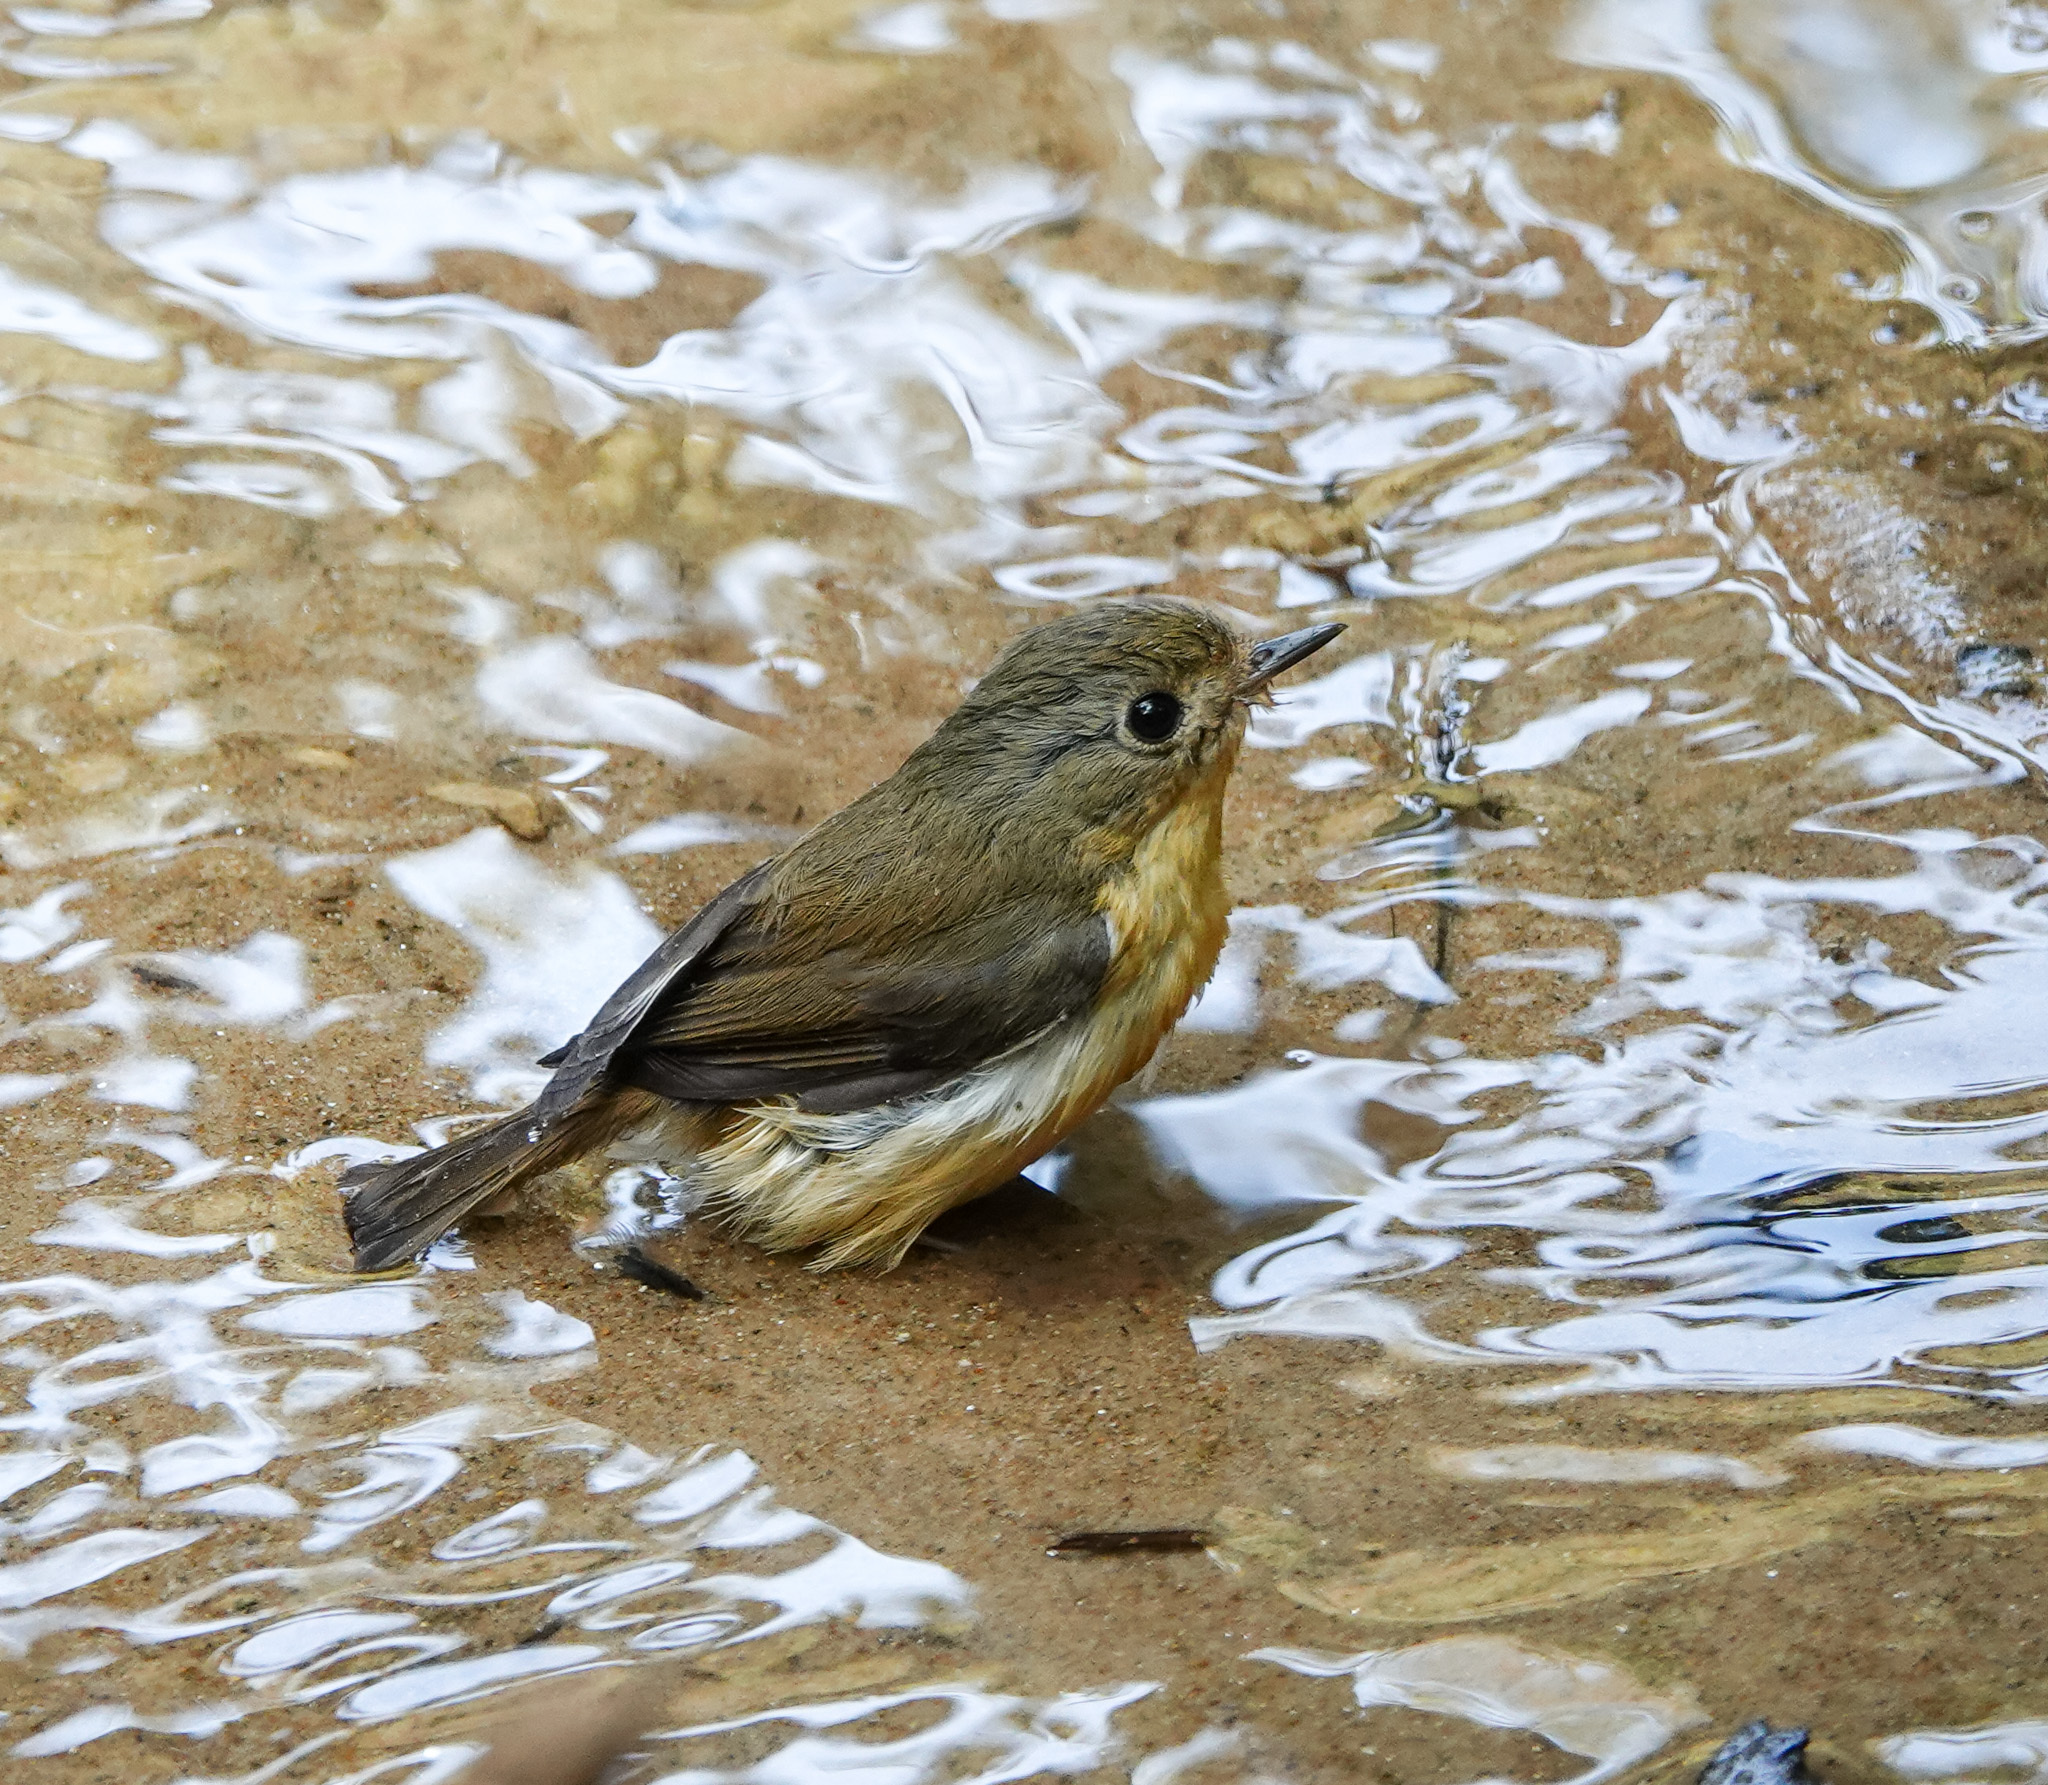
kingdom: Animalia
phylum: Chordata
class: Aves
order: Passeriformes
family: Muscicapidae
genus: Ficedula
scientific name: Ficedula hodgsoni
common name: Pygmy flycatcher
